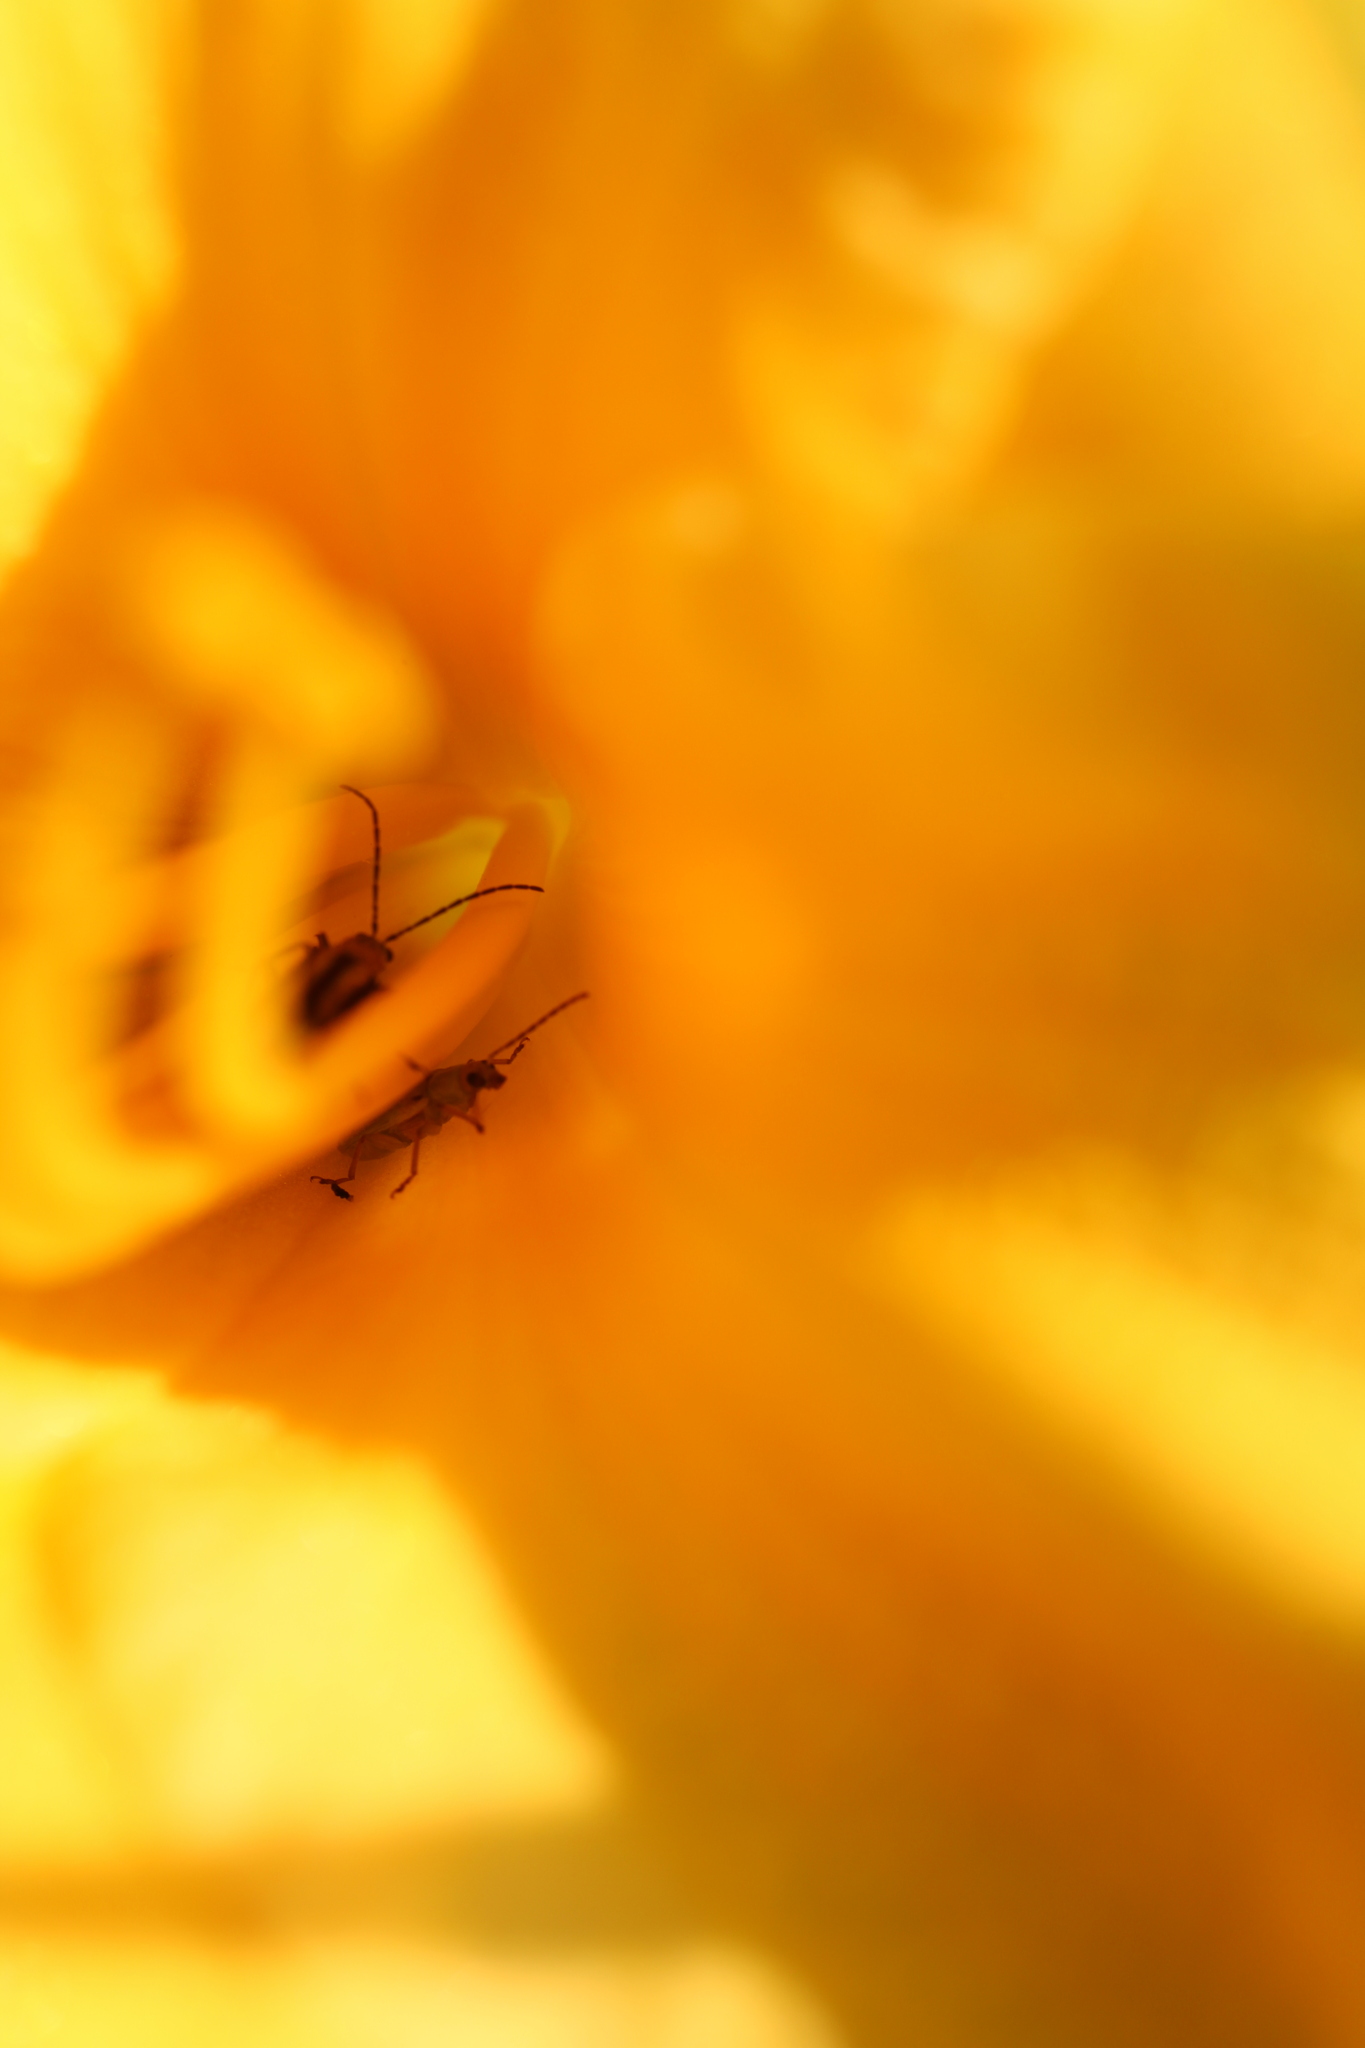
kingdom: Animalia
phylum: Arthropoda
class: Insecta
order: Coleoptera
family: Chrysomelidae
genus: Diabrotica
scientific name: Diabrotica barberi
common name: Northern corn rootworm
